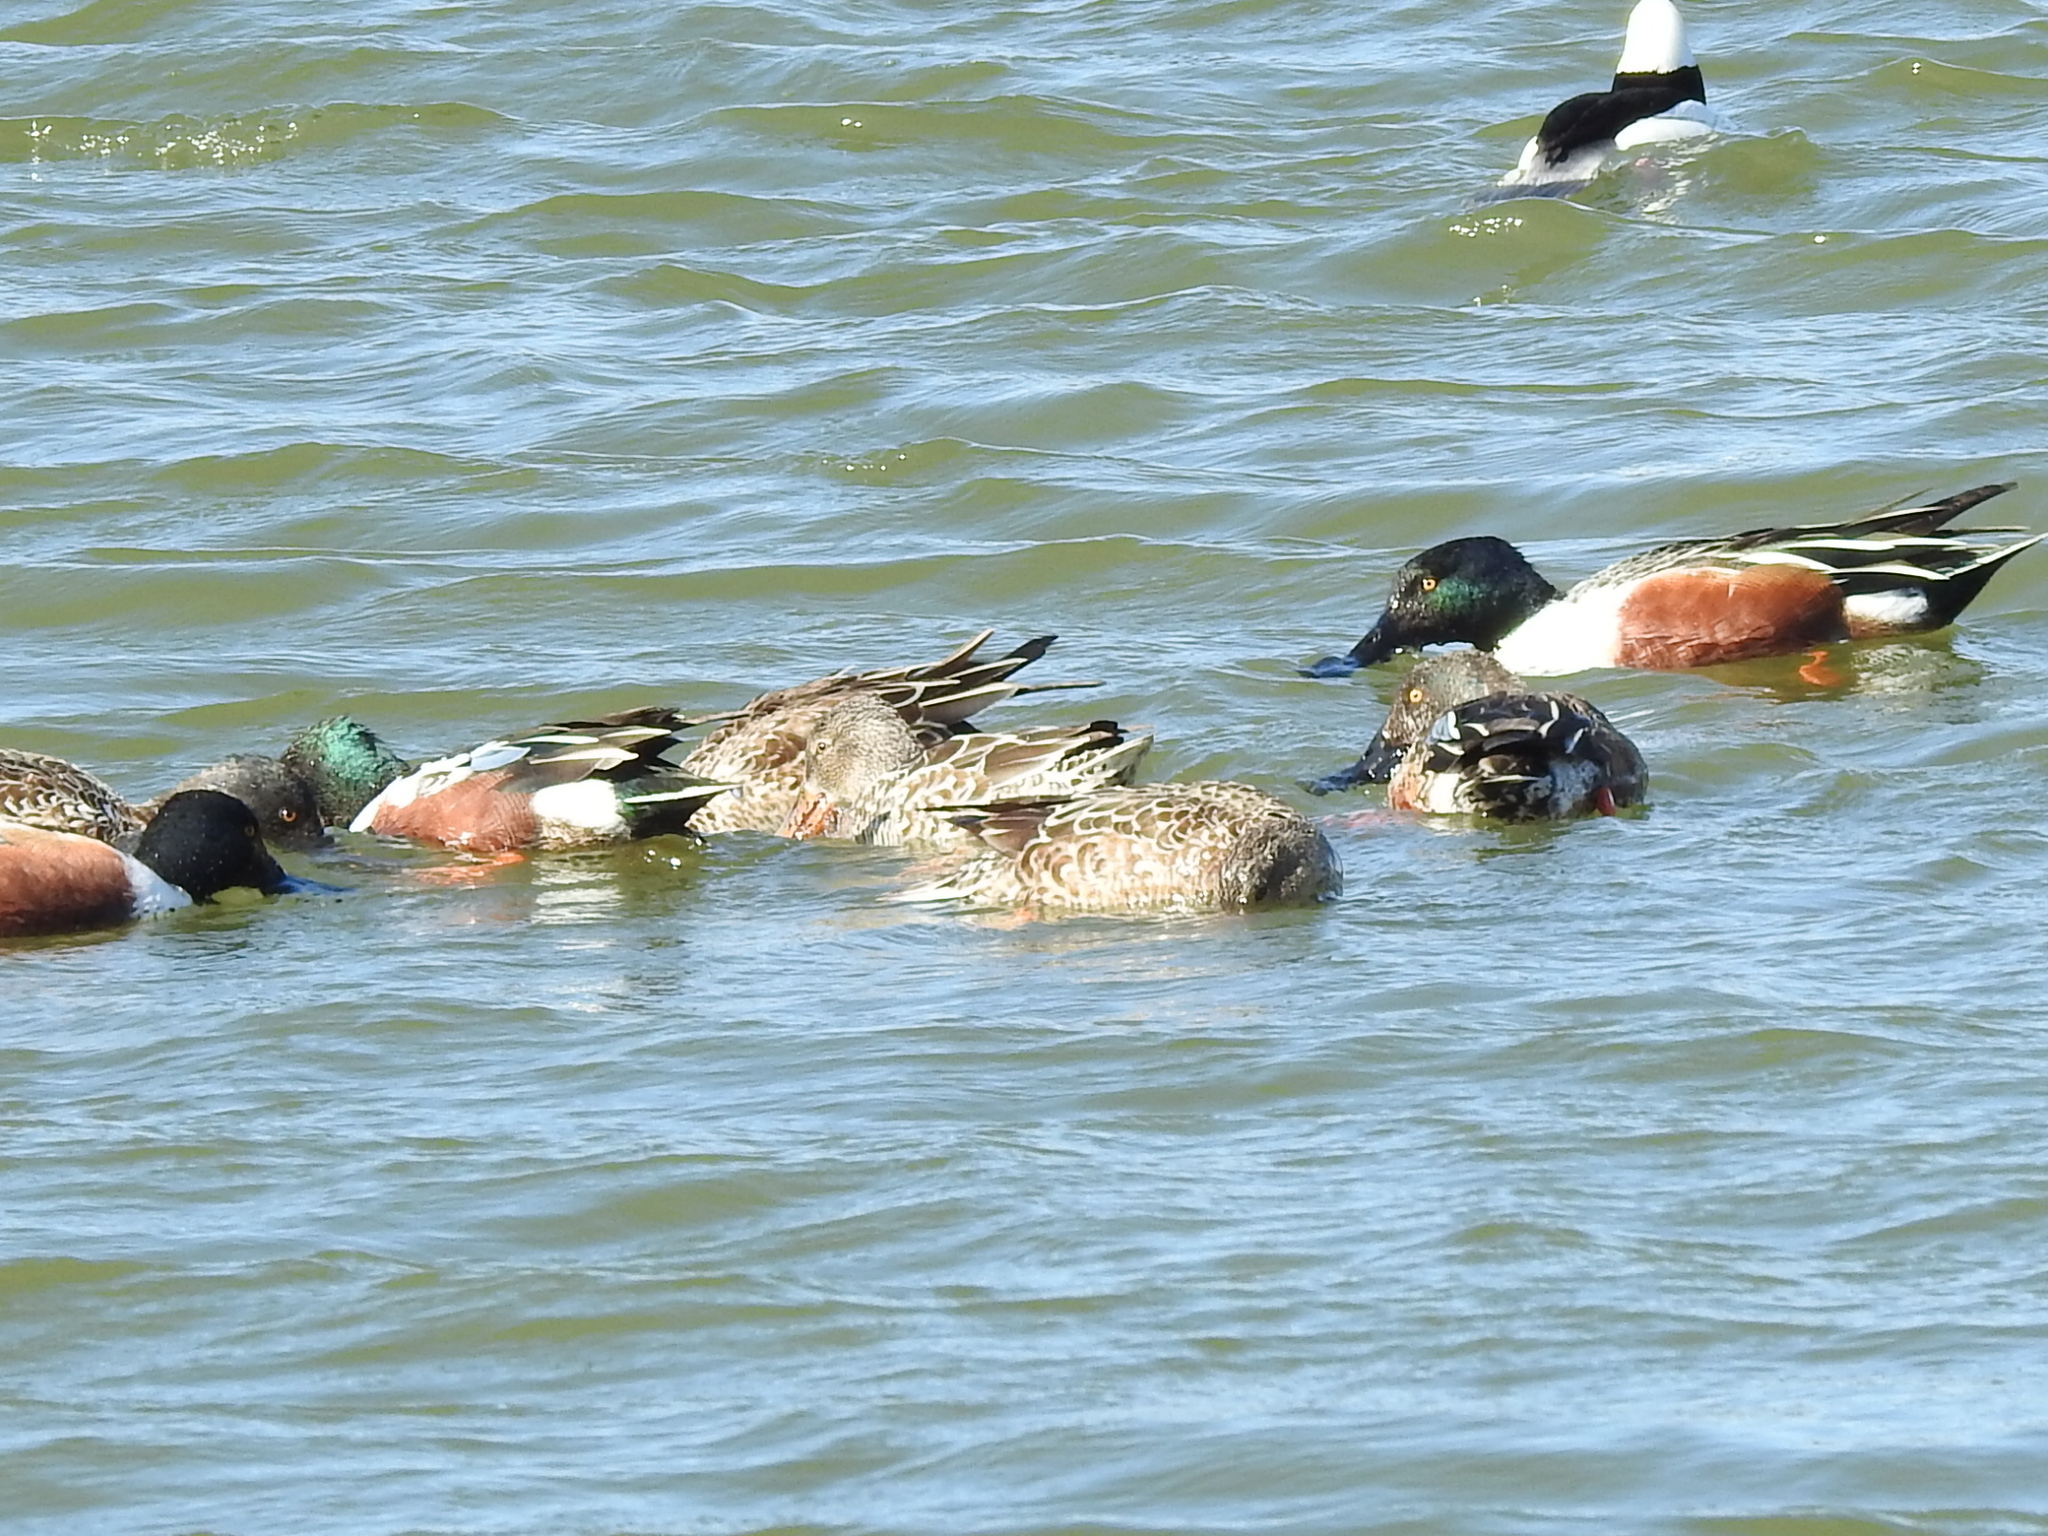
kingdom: Animalia
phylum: Chordata
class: Aves
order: Anseriformes
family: Anatidae
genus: Spatula
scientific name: Spatula clypeata
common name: Northern shoveler
